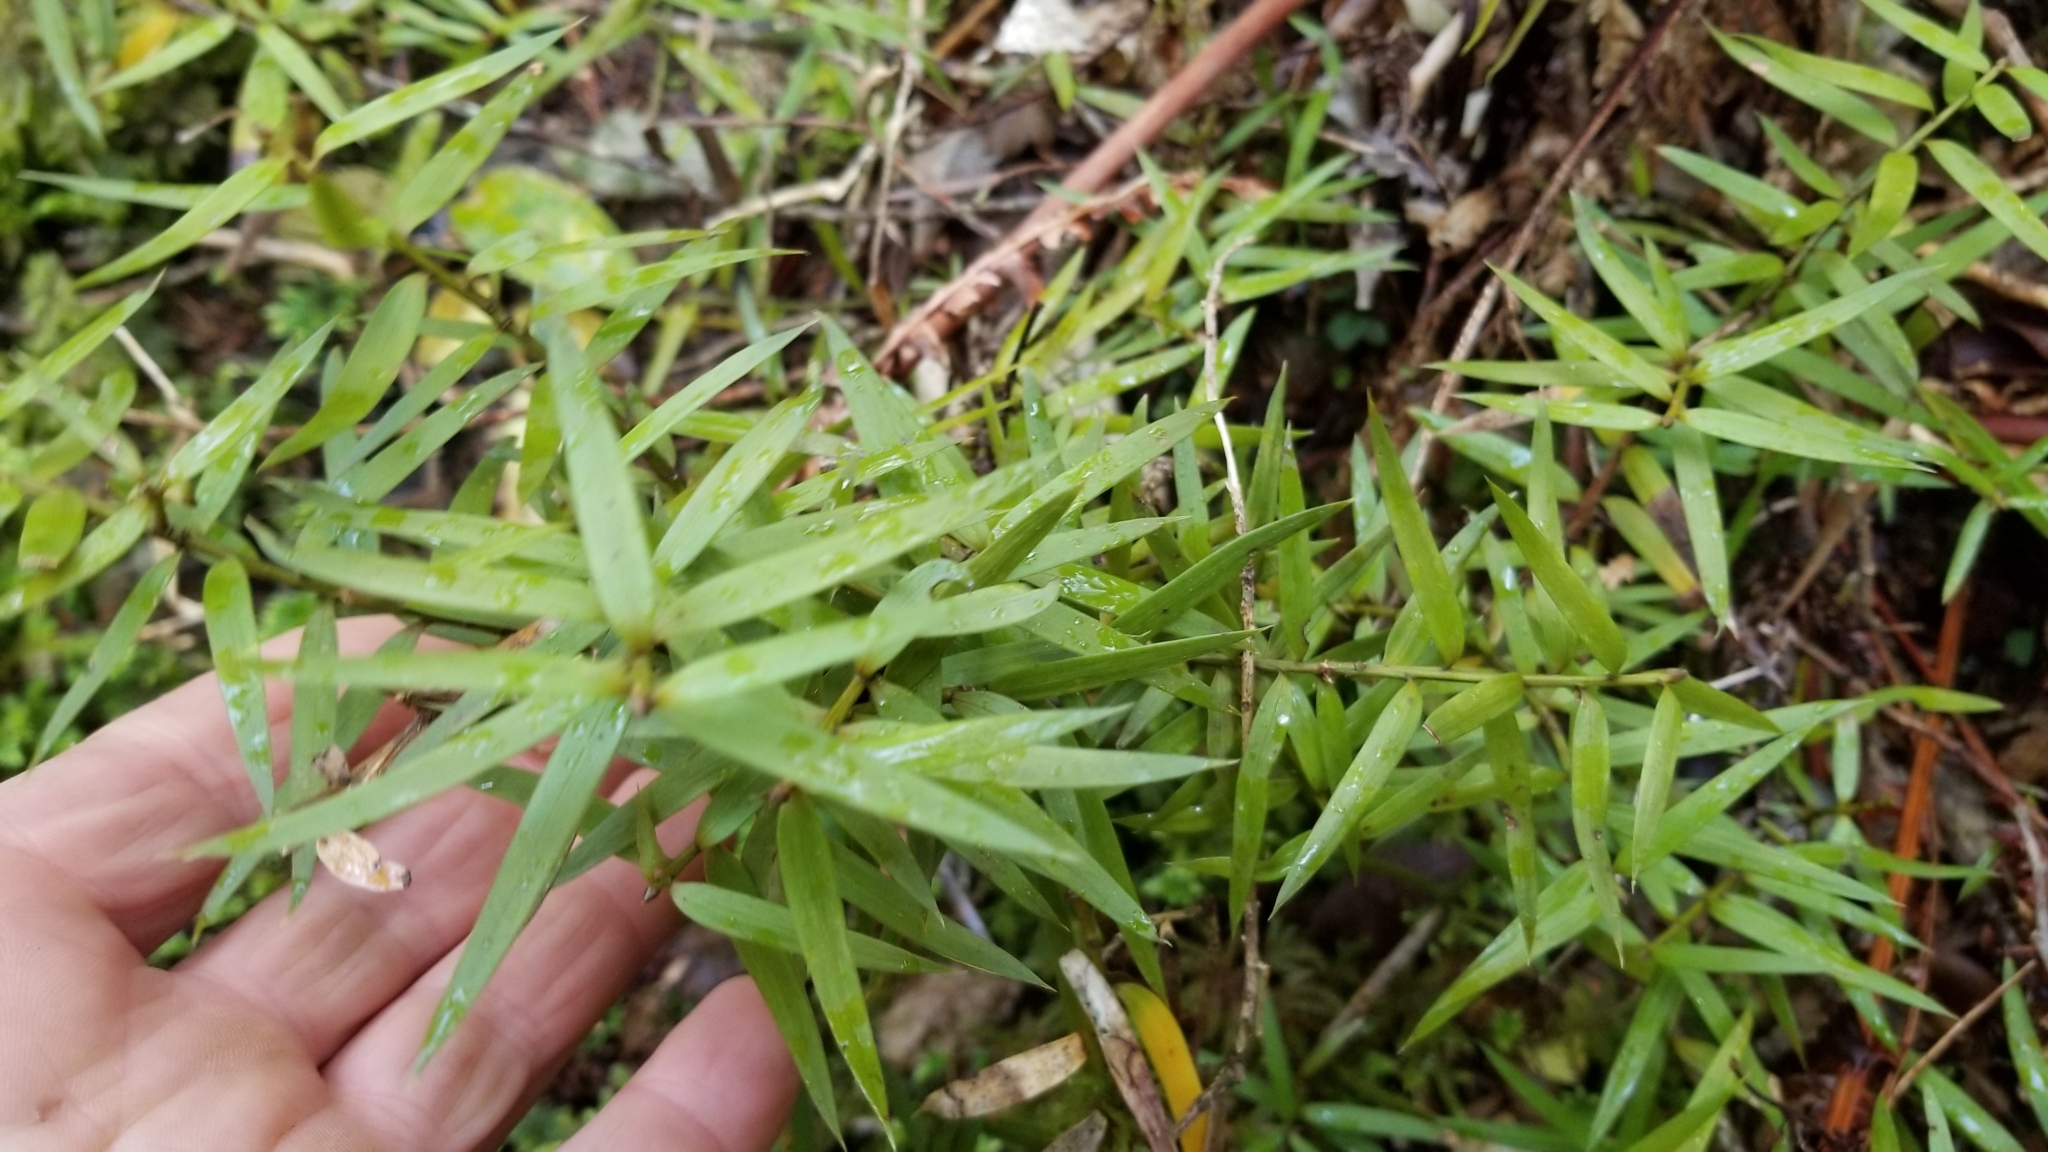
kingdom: Plantae
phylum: Tracheophyta
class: Pinopsida
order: Pinales
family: Podocarpaceae
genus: Podocarpus
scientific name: Podocarpus totara
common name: Totara
